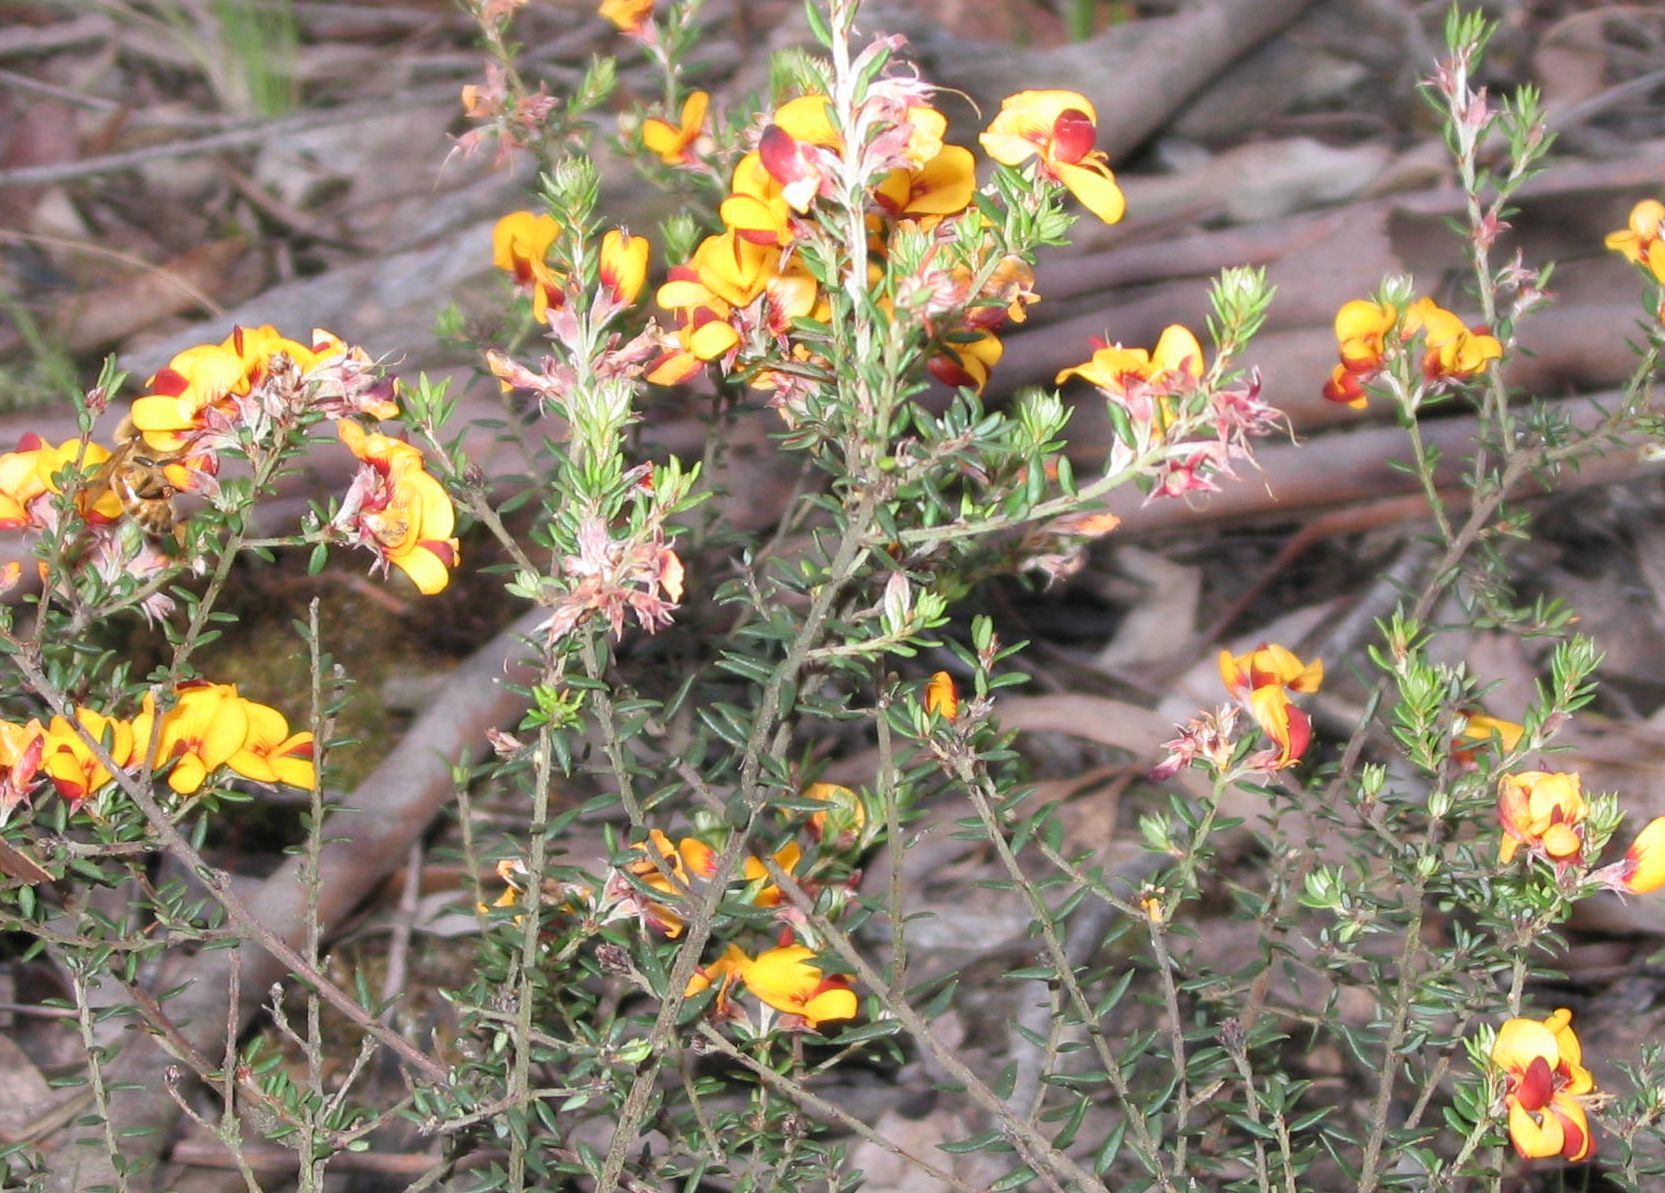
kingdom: Plantae
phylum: Tracheophyta
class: Magnoliopsida
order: Fabales
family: Fabaceae
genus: Pultenaea
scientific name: Pultenaea gunnii
